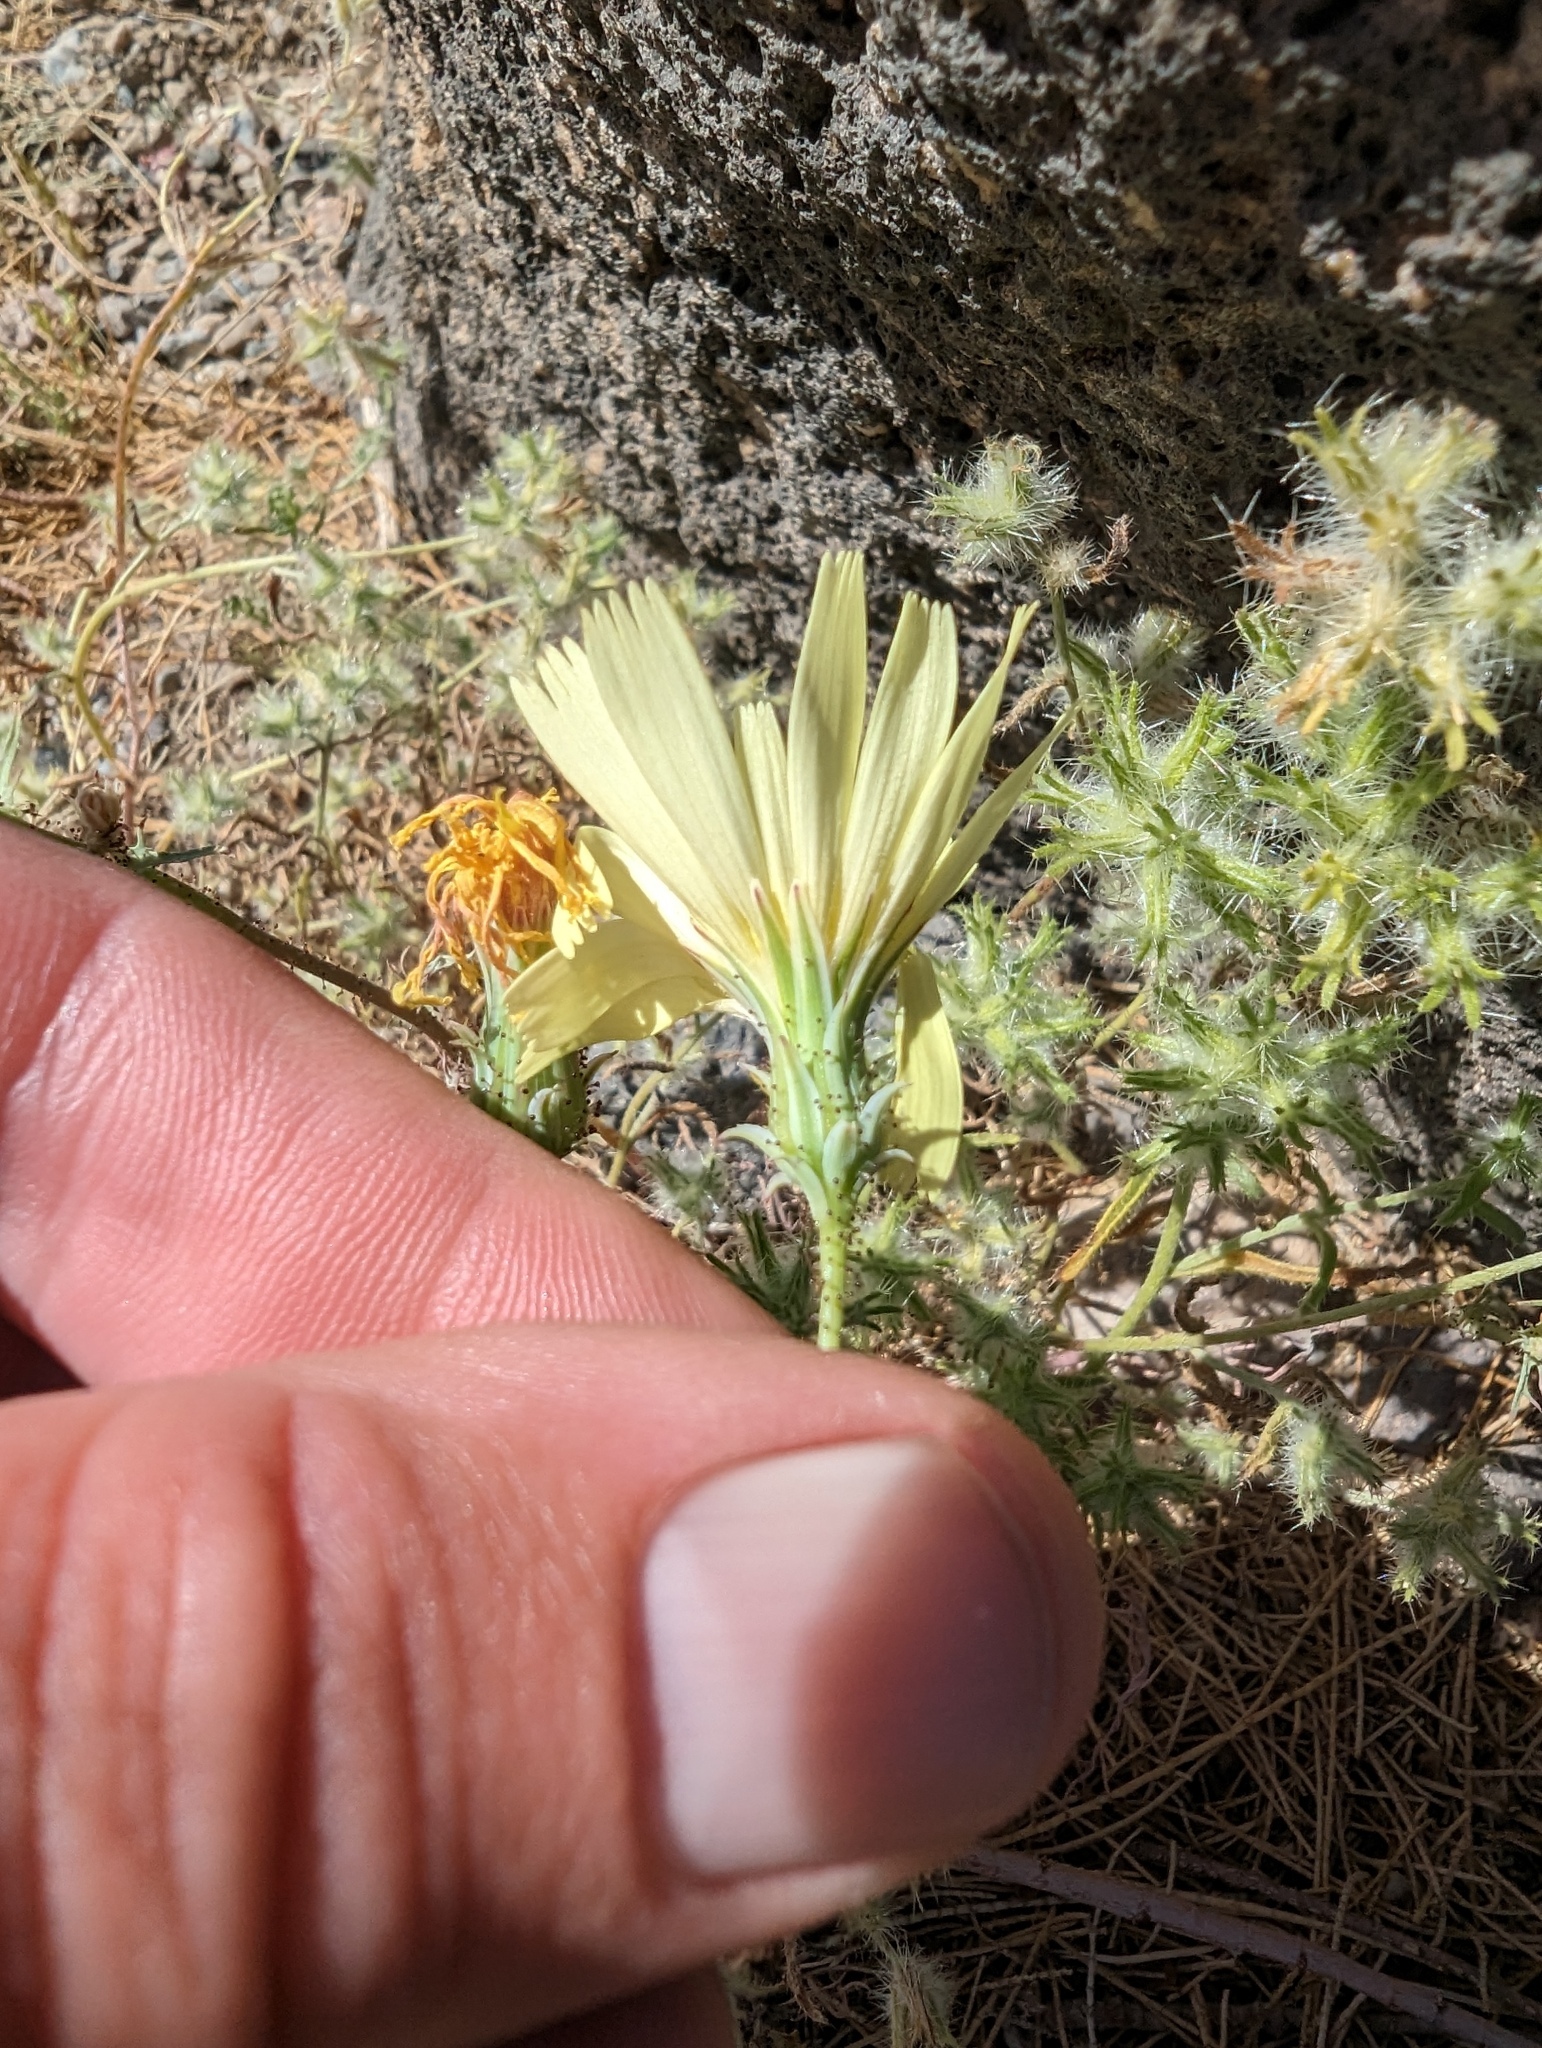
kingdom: Plantae
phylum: Tracheophyta
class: Magnoliopsida
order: Asterales
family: Asteraceae
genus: Calycoseris
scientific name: Calycoseris parryi
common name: Yellow tackstem
